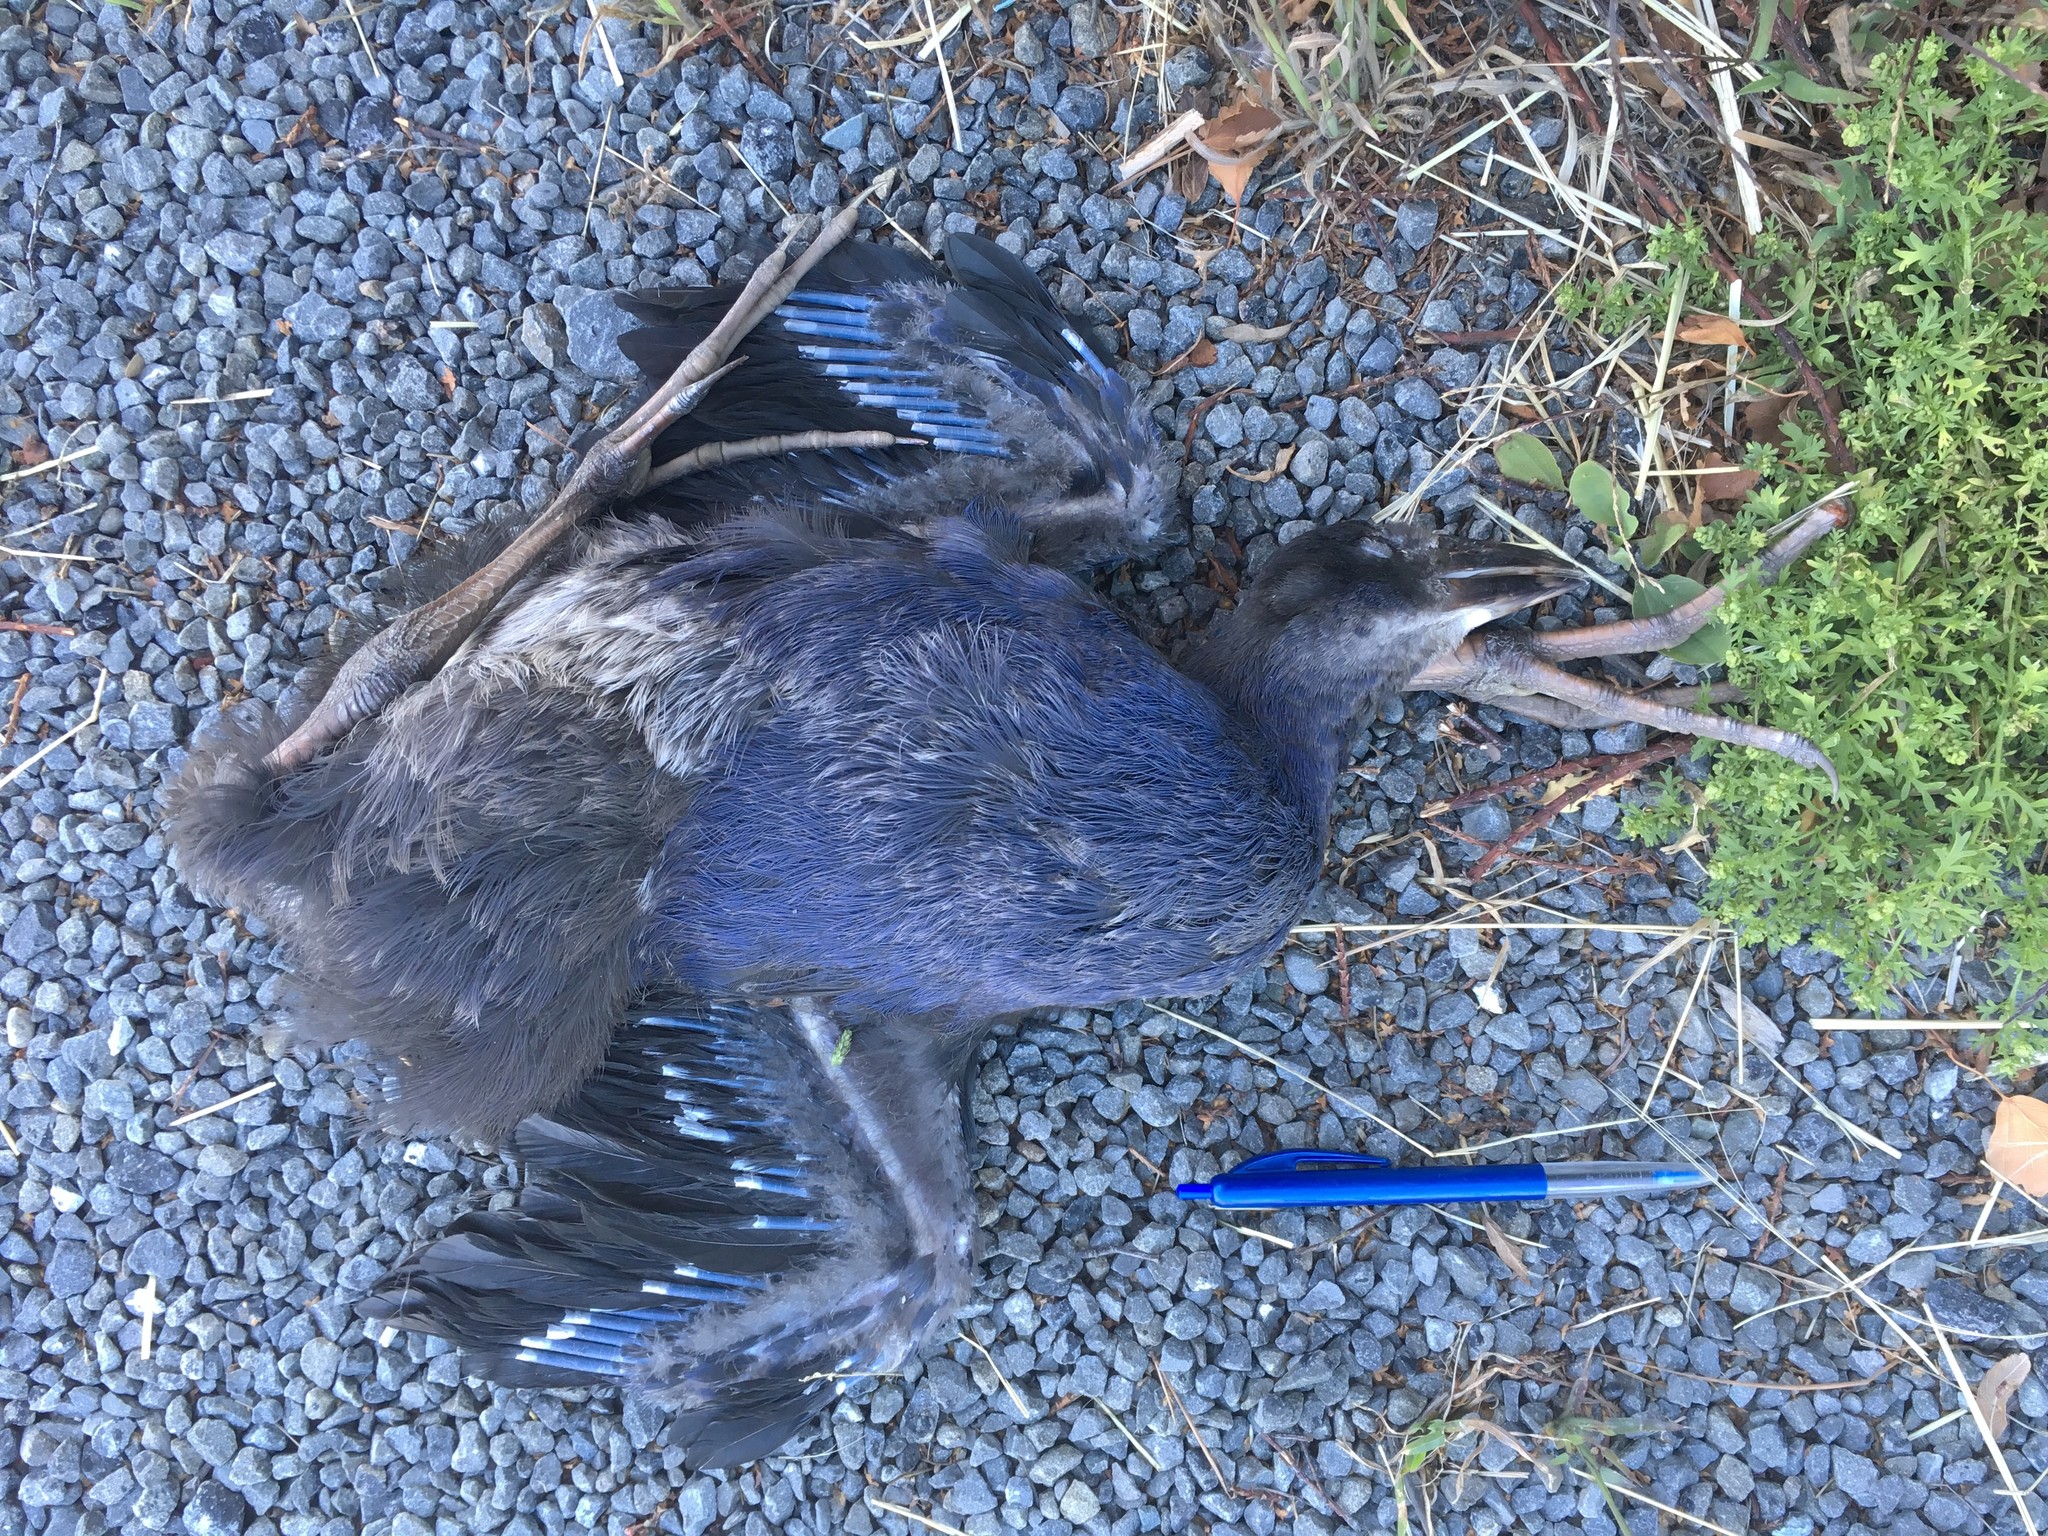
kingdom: Animalia
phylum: Chordata
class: Aves
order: Gruiformes
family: Rallidae
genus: Porphyrio
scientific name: Porphyrio melanotus
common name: Australasian swamphen
